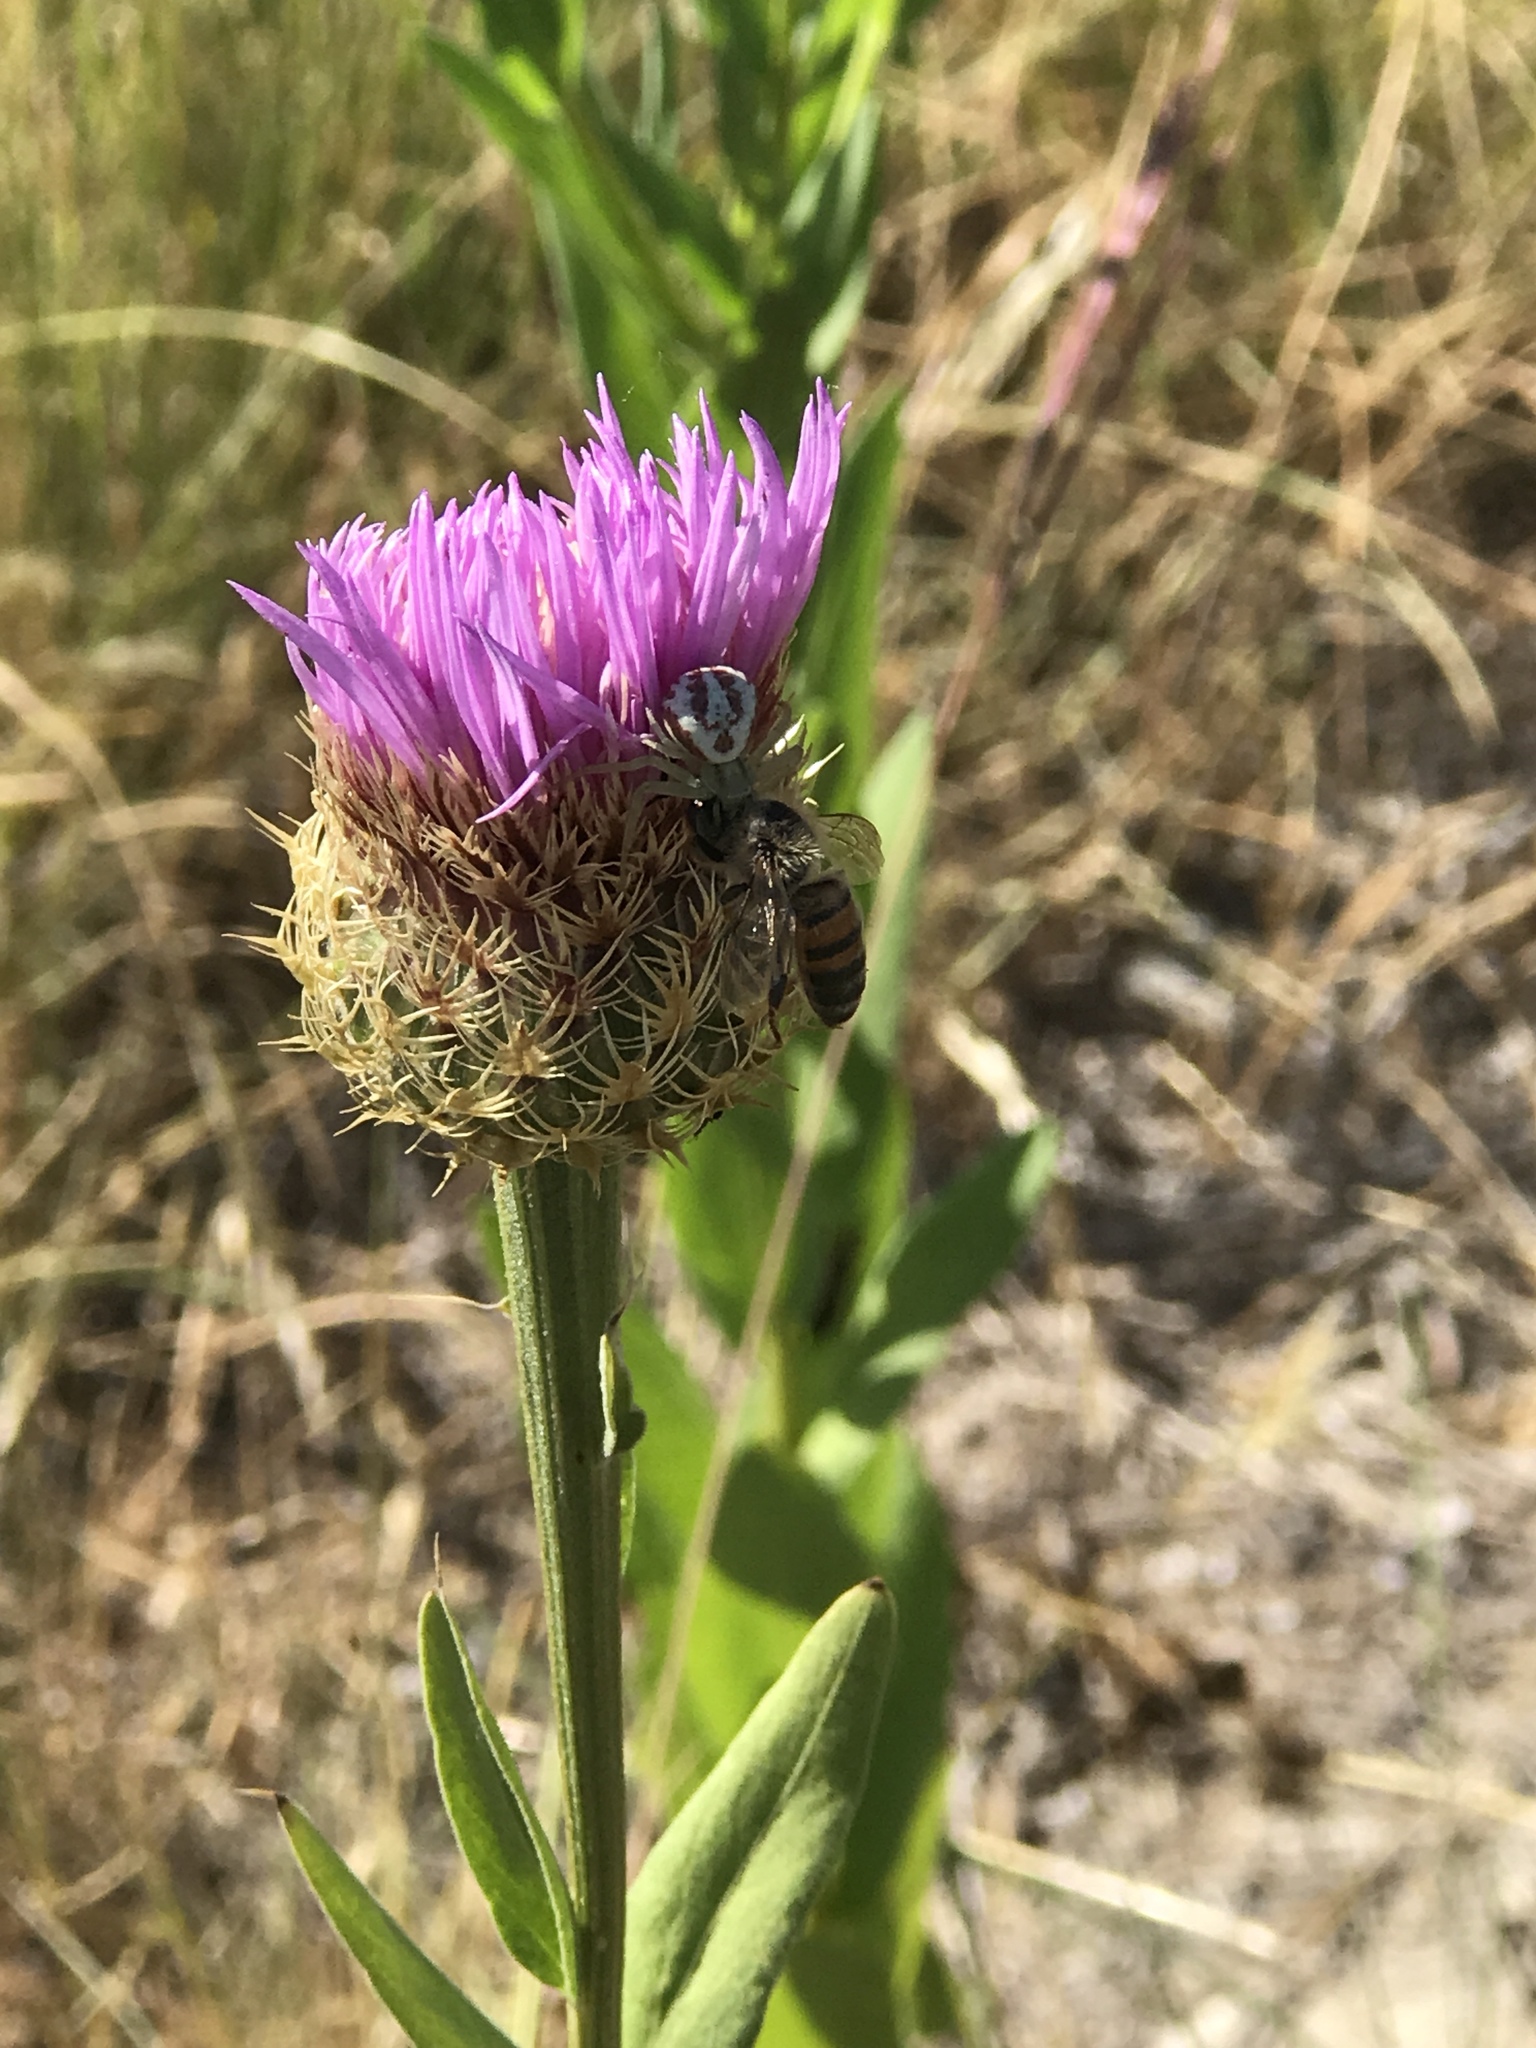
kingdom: Plantae
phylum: Tracheophyta
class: Magnoliopsida
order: Asterales
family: Asteraceae
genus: Plectocephalus
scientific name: Plectocephalus americanus
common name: American basket-flower
